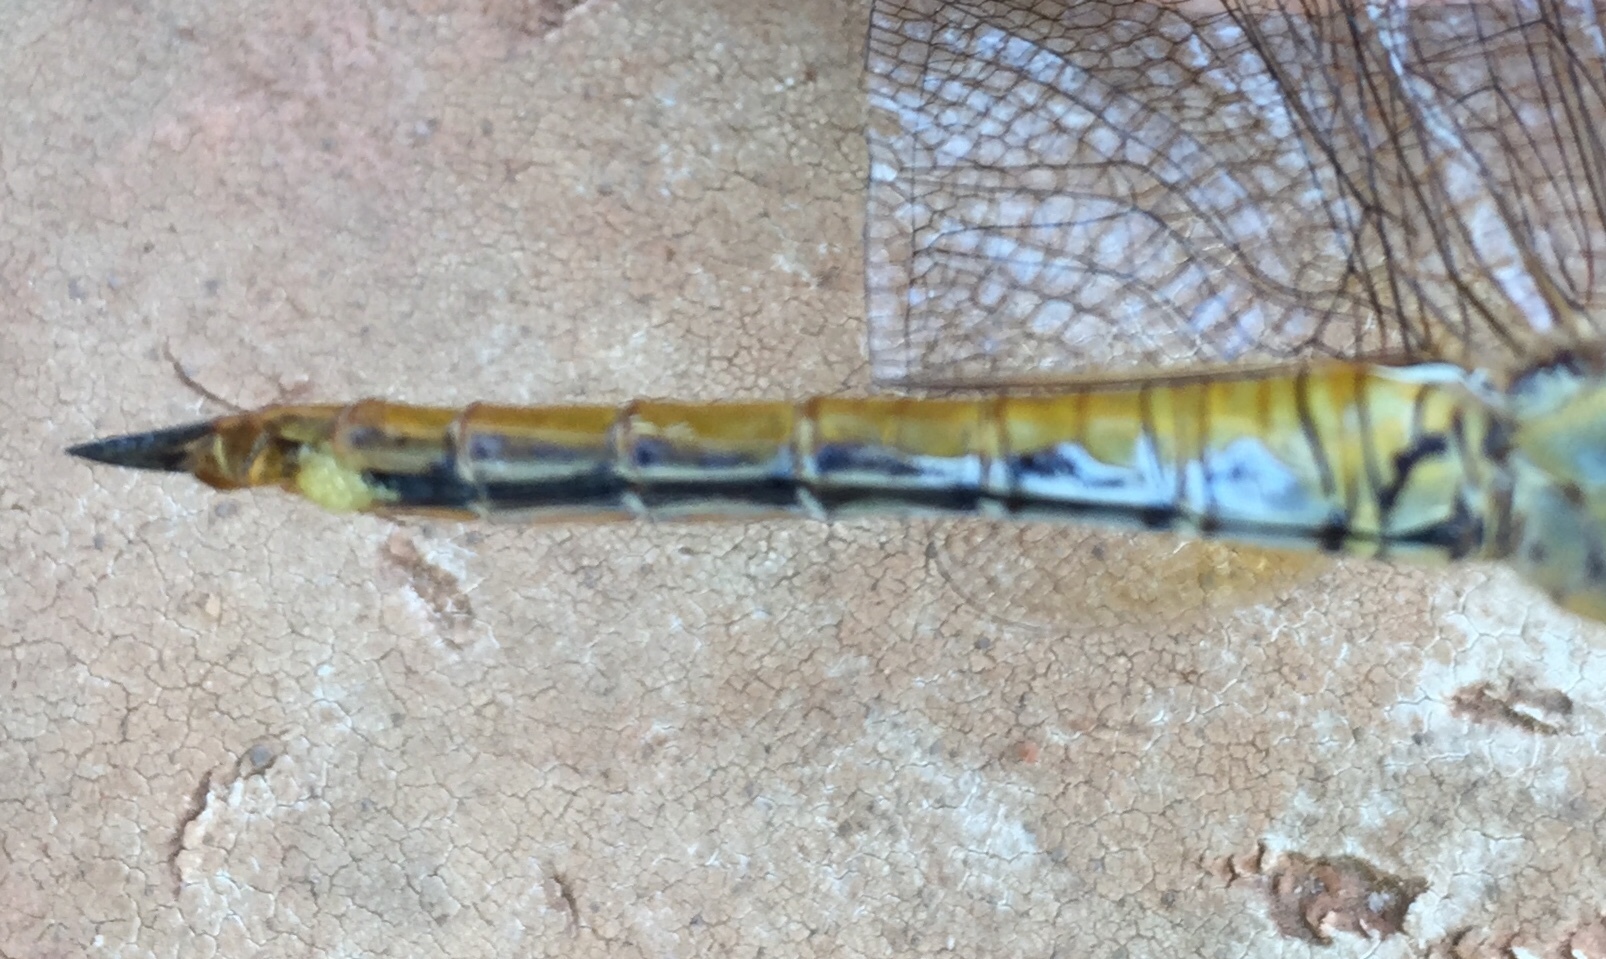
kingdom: Animalia
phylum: Arthropoda
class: Insecta
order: Odonata
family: Libellulidae
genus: Pantala
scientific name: Pantala flavescens
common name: Wandering glider
